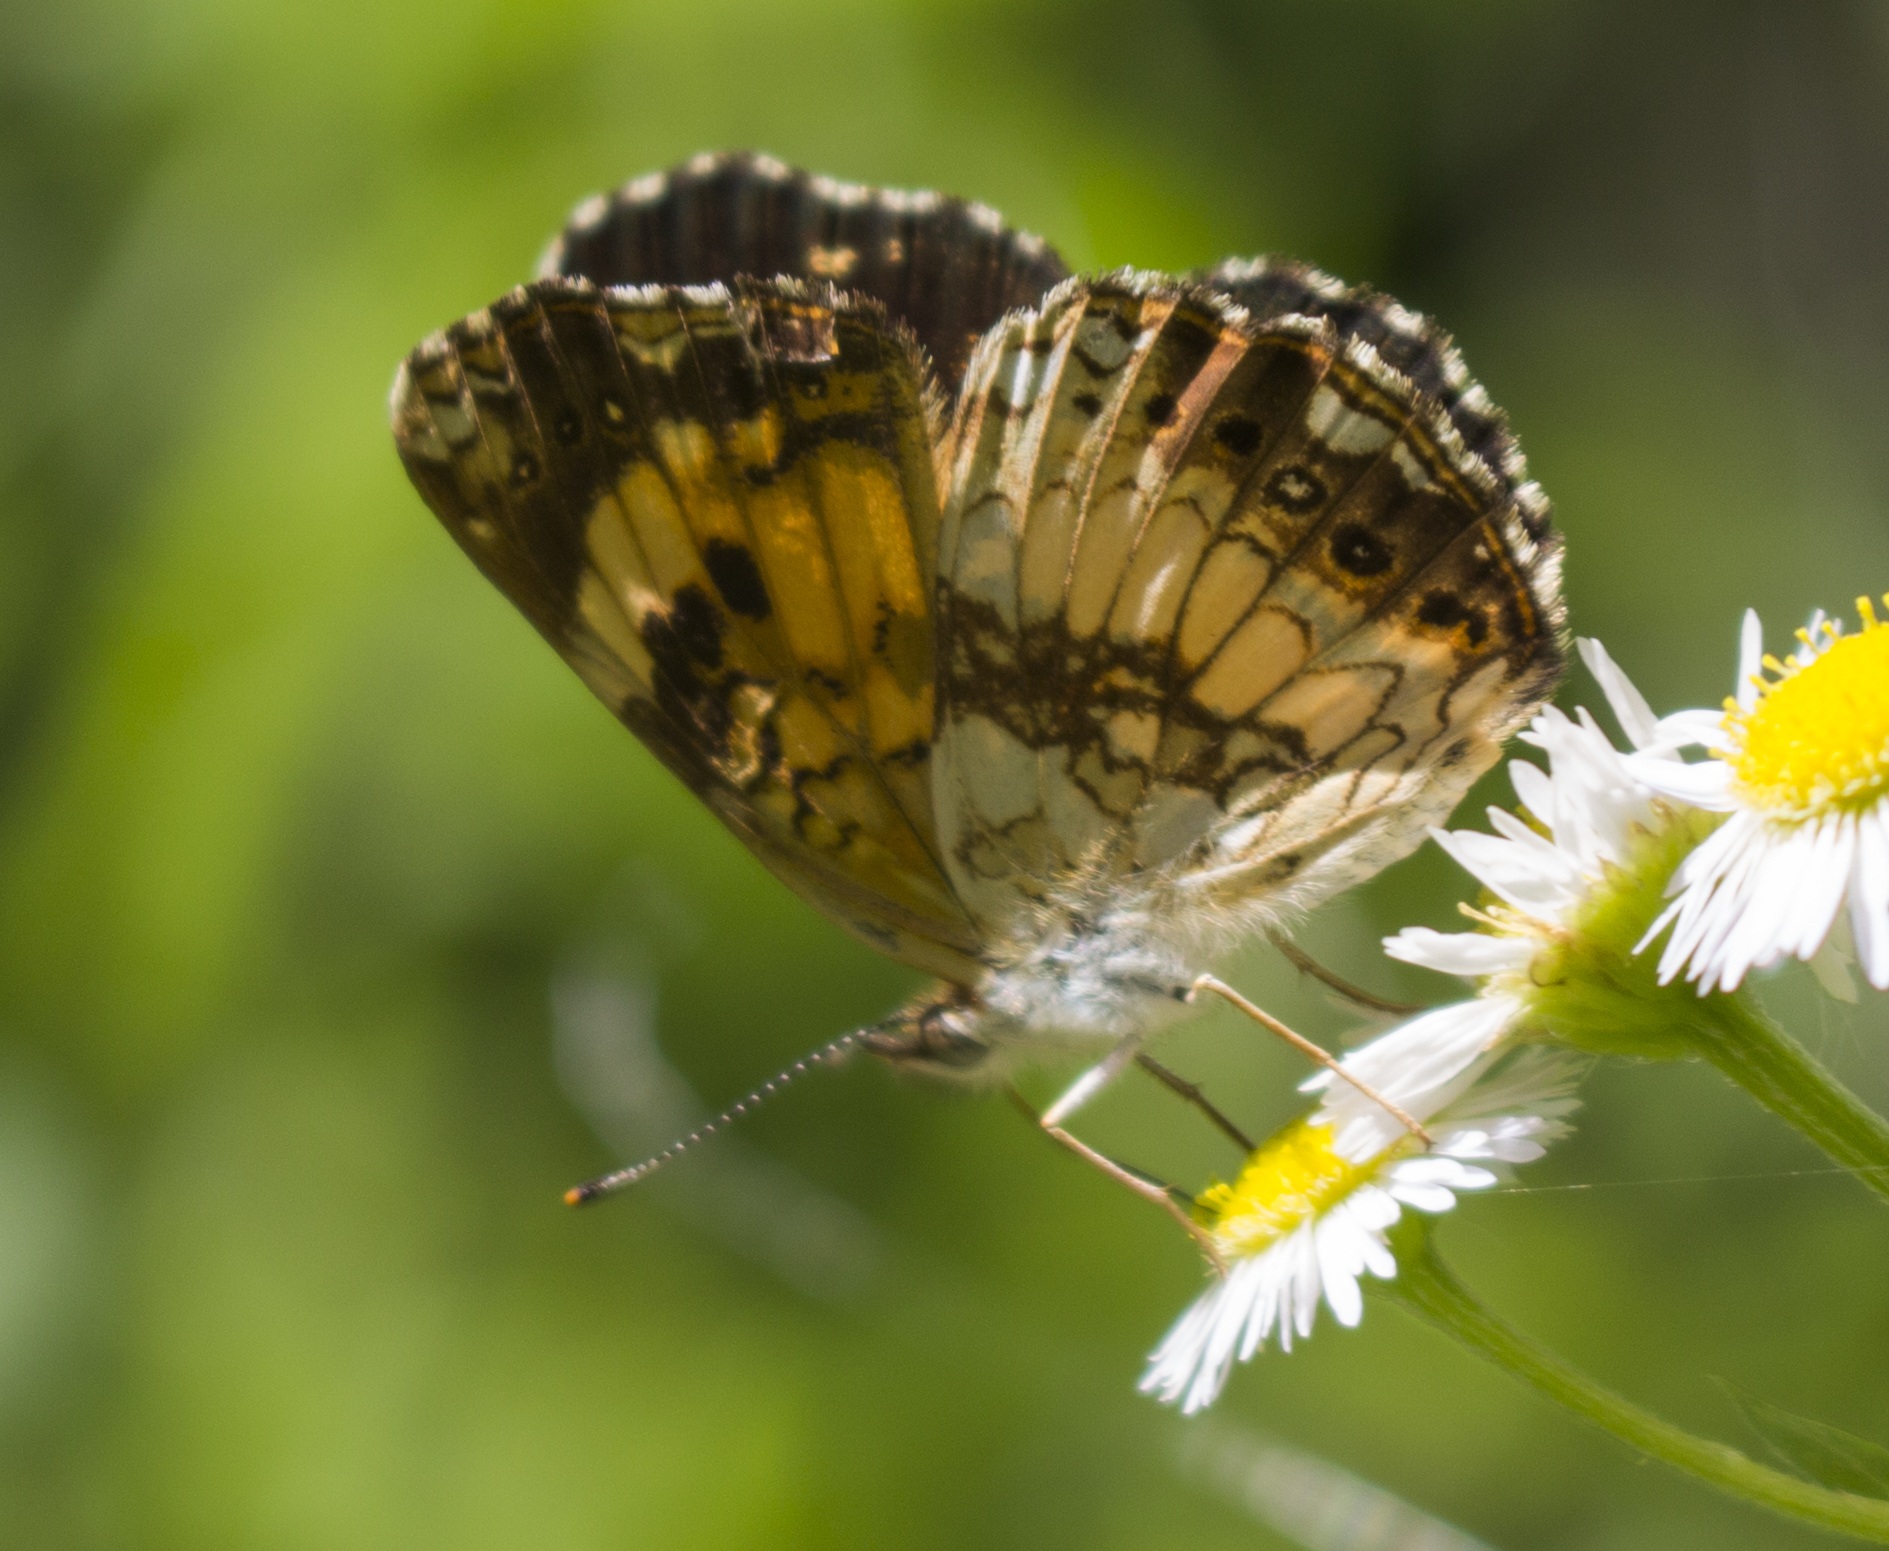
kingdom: Animalia
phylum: Arthropoda
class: Insecta
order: Lepidoptera
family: Nymphalidae
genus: Chlosyne
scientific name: Chlosyne nycteis
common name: Silvery checkerspot
